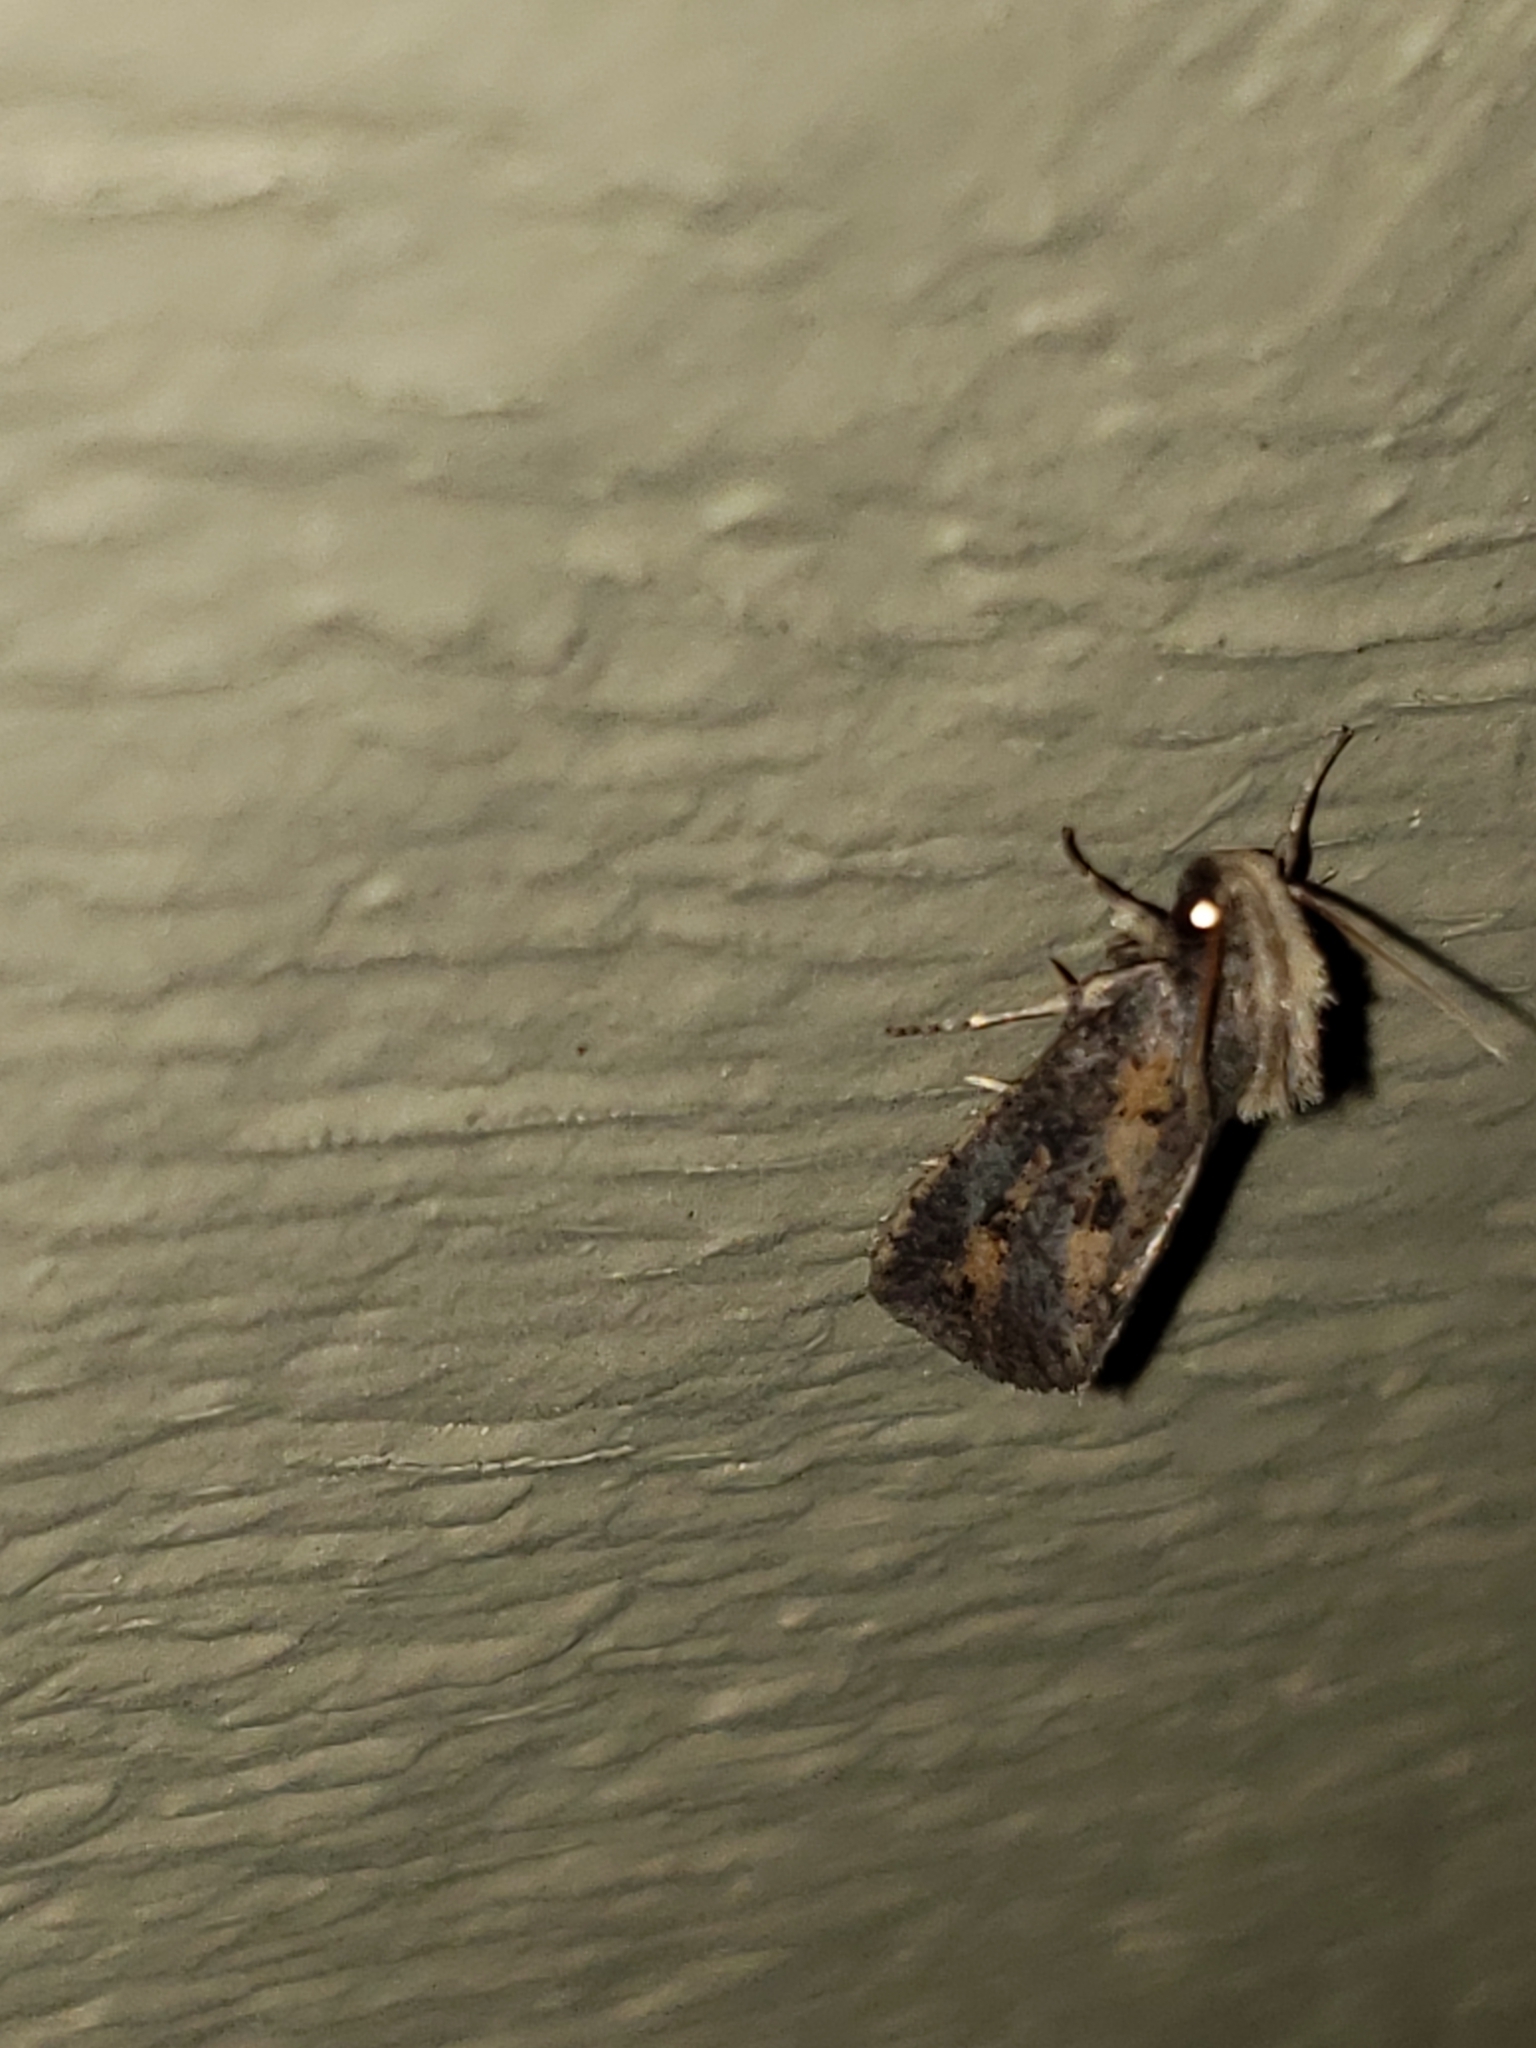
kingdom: Animalia
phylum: Arthropoda
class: Insecta
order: Lepidoptera
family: Tineidae
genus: Acrolophus
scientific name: Acrolophus popeanella
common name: Clemens' grass tubeworm moth
